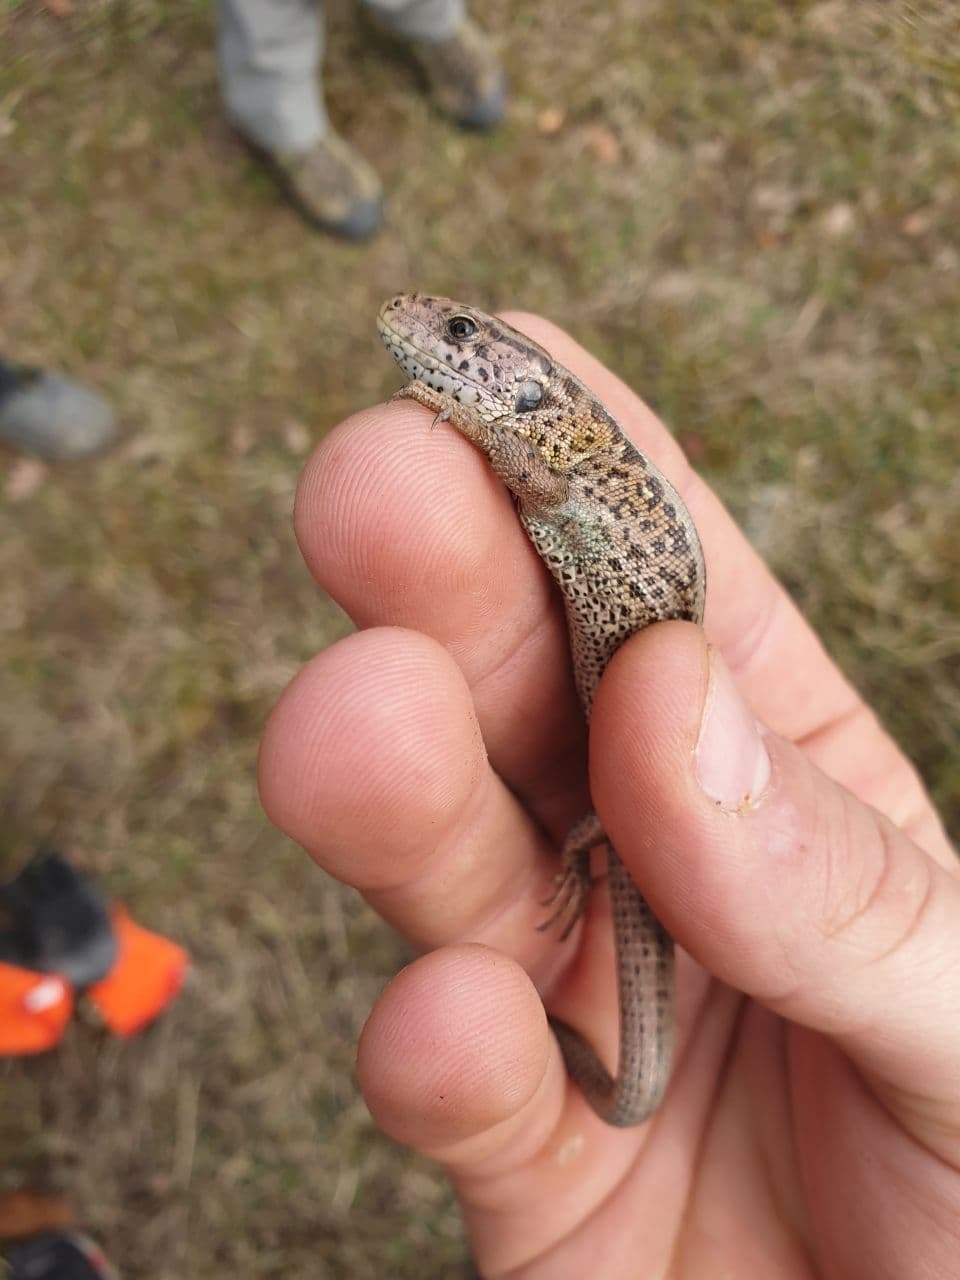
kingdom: Animalia
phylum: Chordata
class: Squamata
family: Lacertidae
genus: Lacerta
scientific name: Lacerta agilis
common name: Sand lizard
